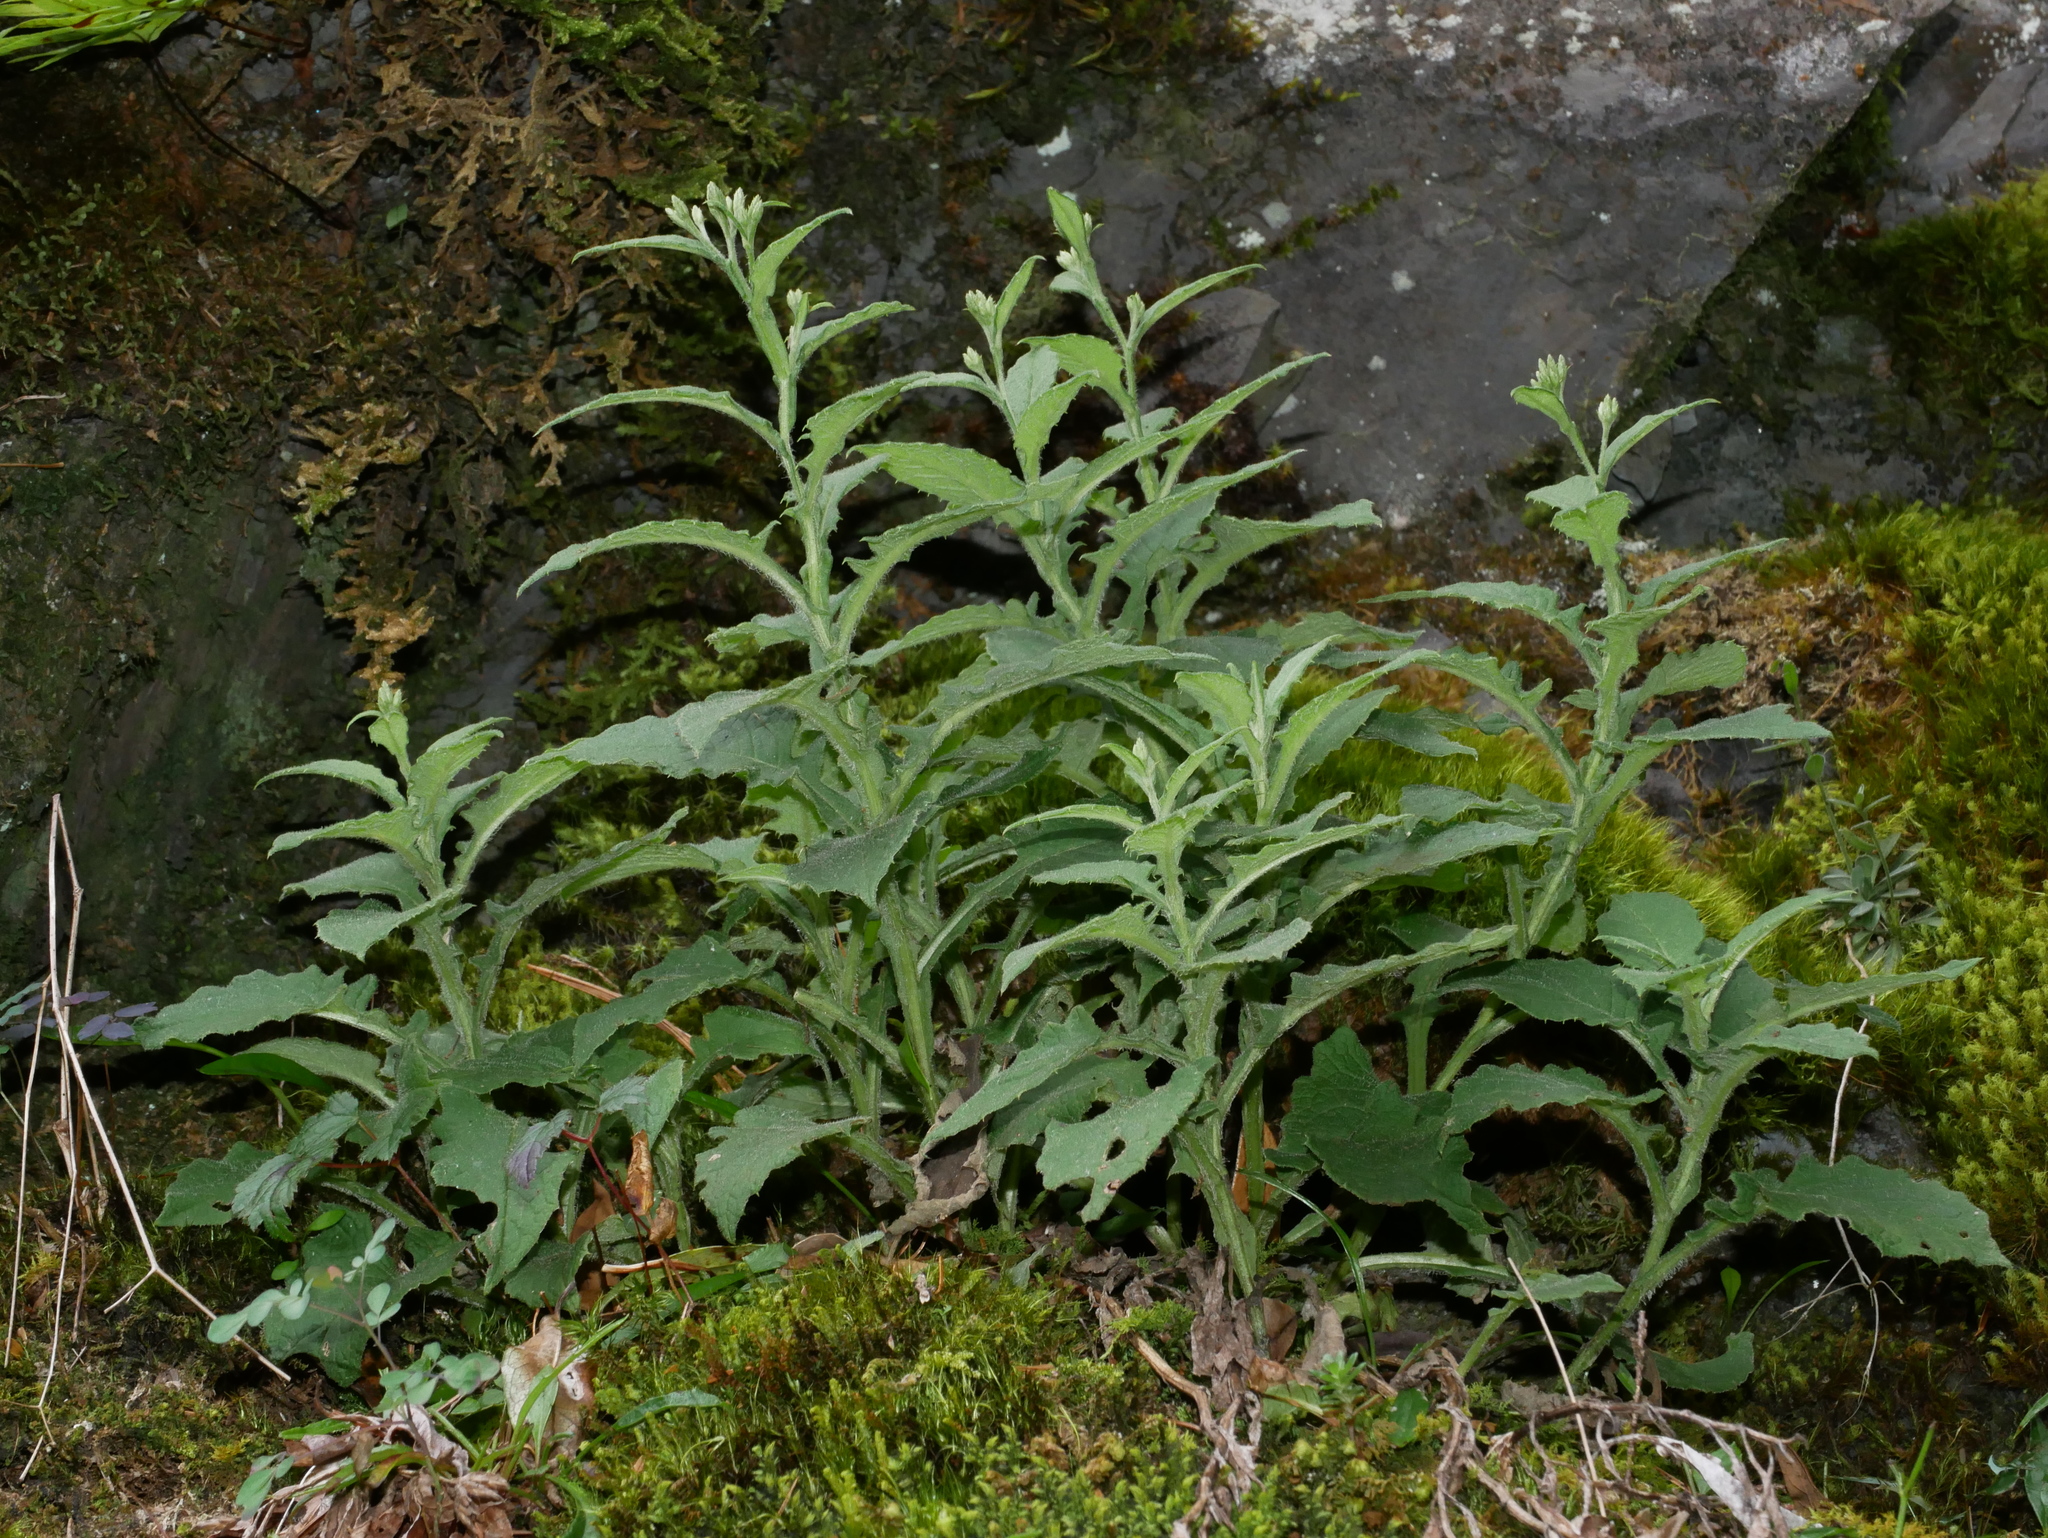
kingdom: Plantae
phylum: Tracheophyta
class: Magnoliopsida
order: Asterales
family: Asteraceae
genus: Saussurea
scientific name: Saussurea glandulosa
